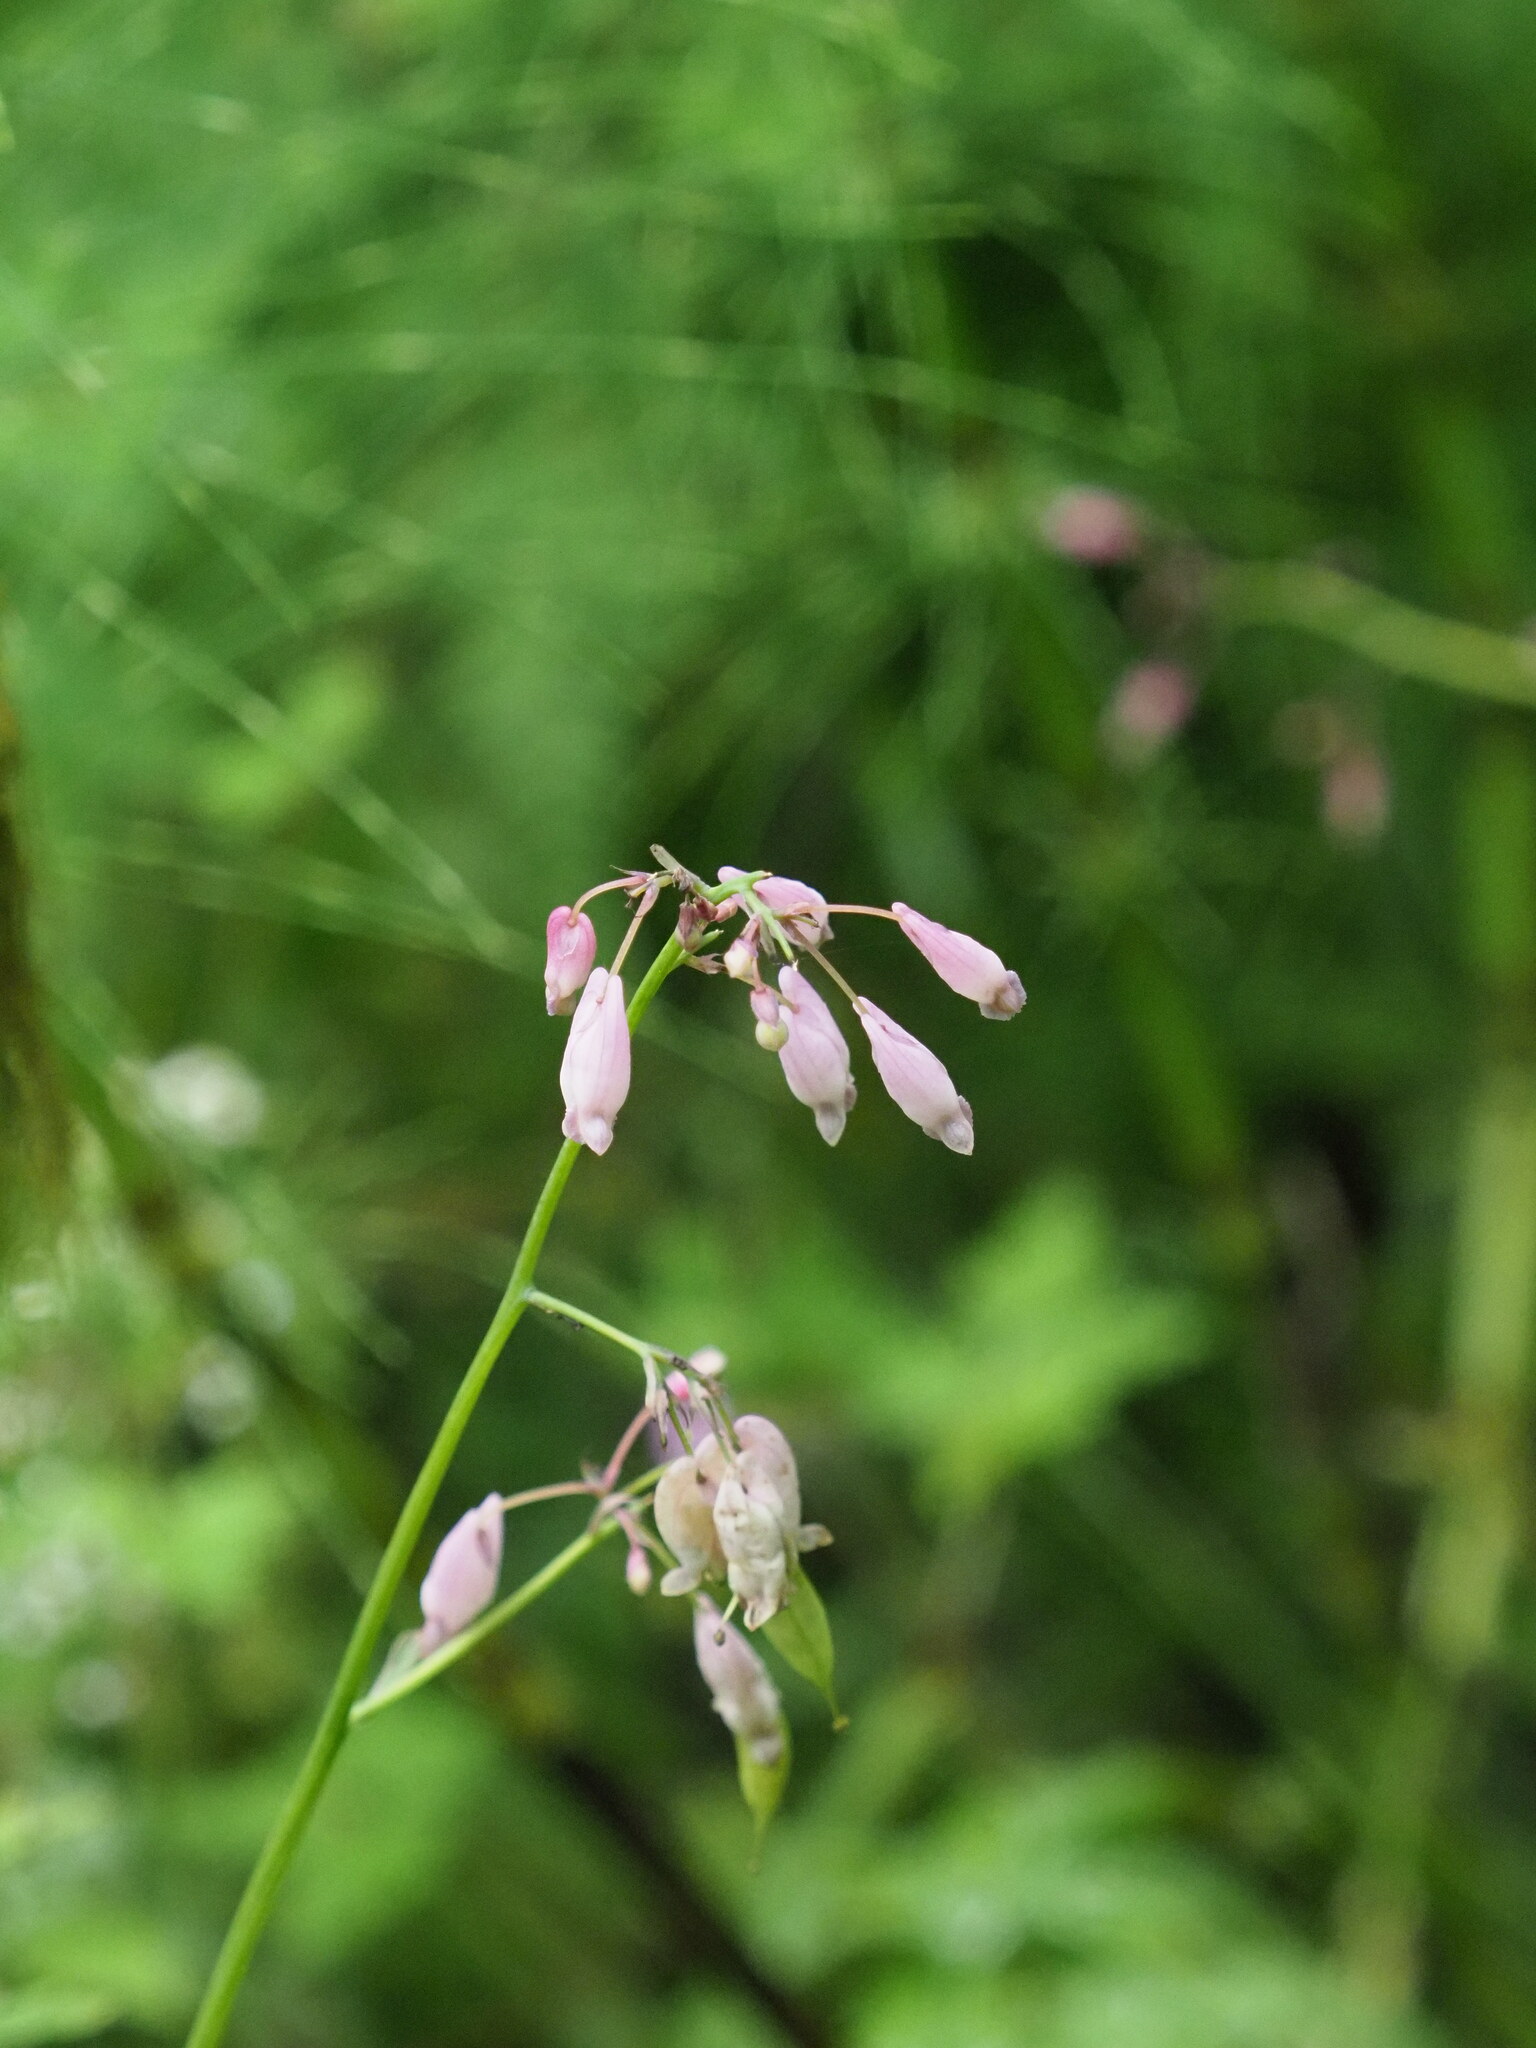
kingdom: Plantae
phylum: Tracheophyta
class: Magnoliopsida
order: Ranunculales
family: Papaveraceae
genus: Dicentra
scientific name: Dicentra formosa
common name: Bleeding-heart
